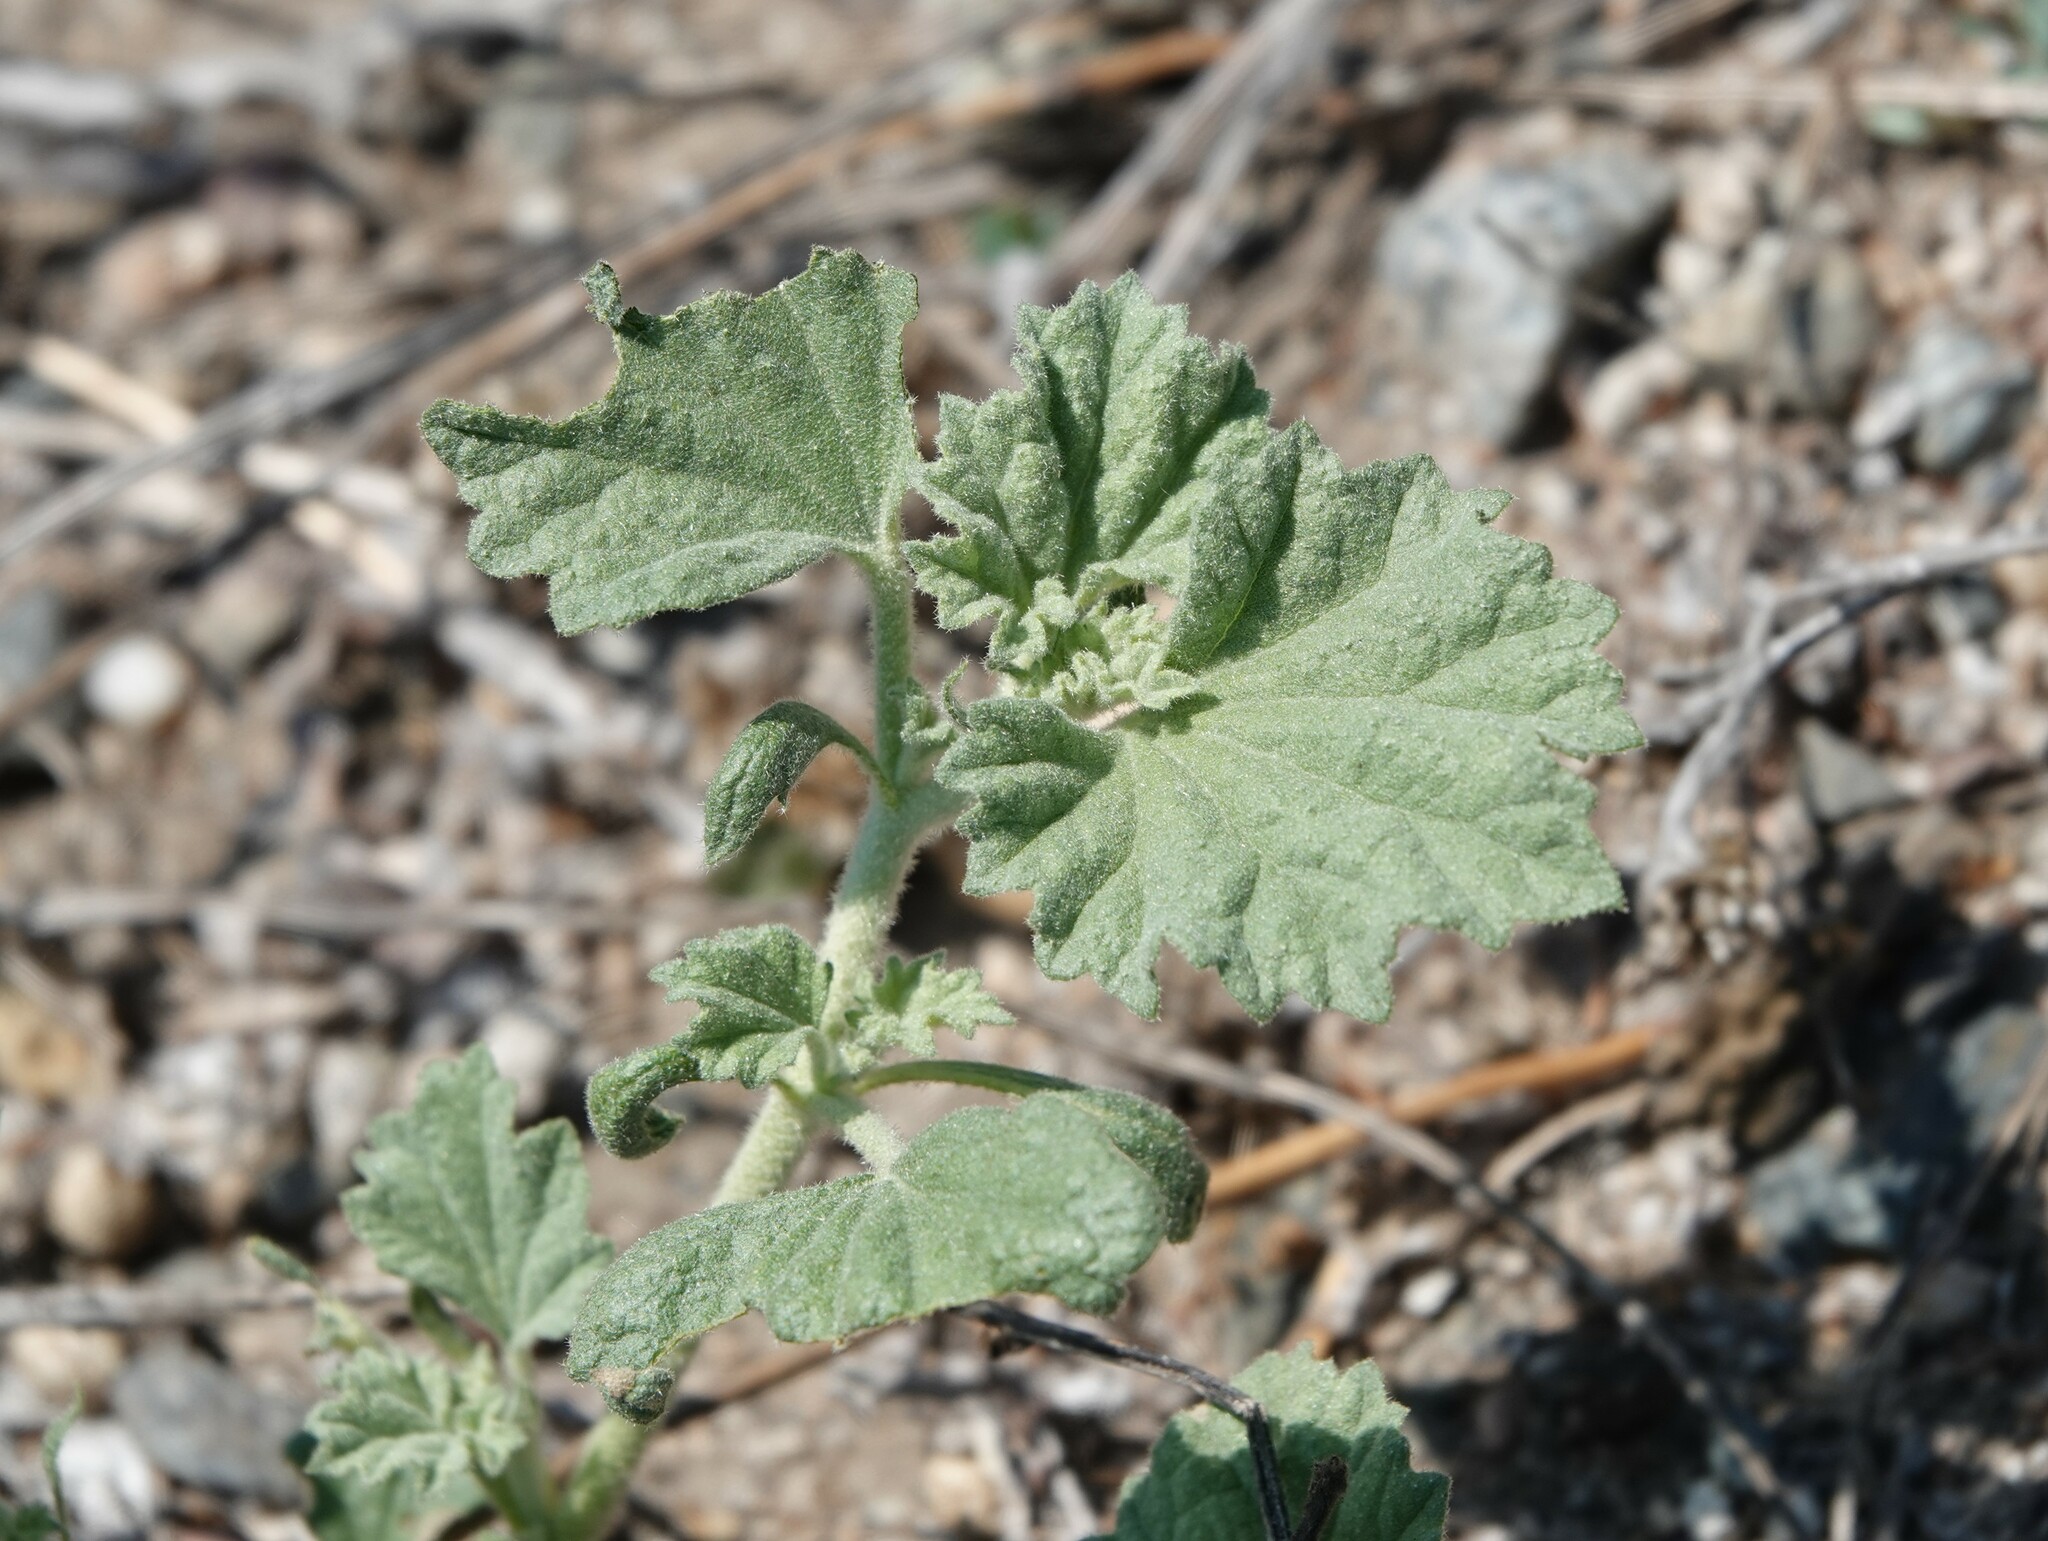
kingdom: Plantae
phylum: Tracheophyta
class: Magnoliopsida
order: Malvales
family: Malvaceae
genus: Malvella
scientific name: Malvella leprosa
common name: Alkali-mallow
